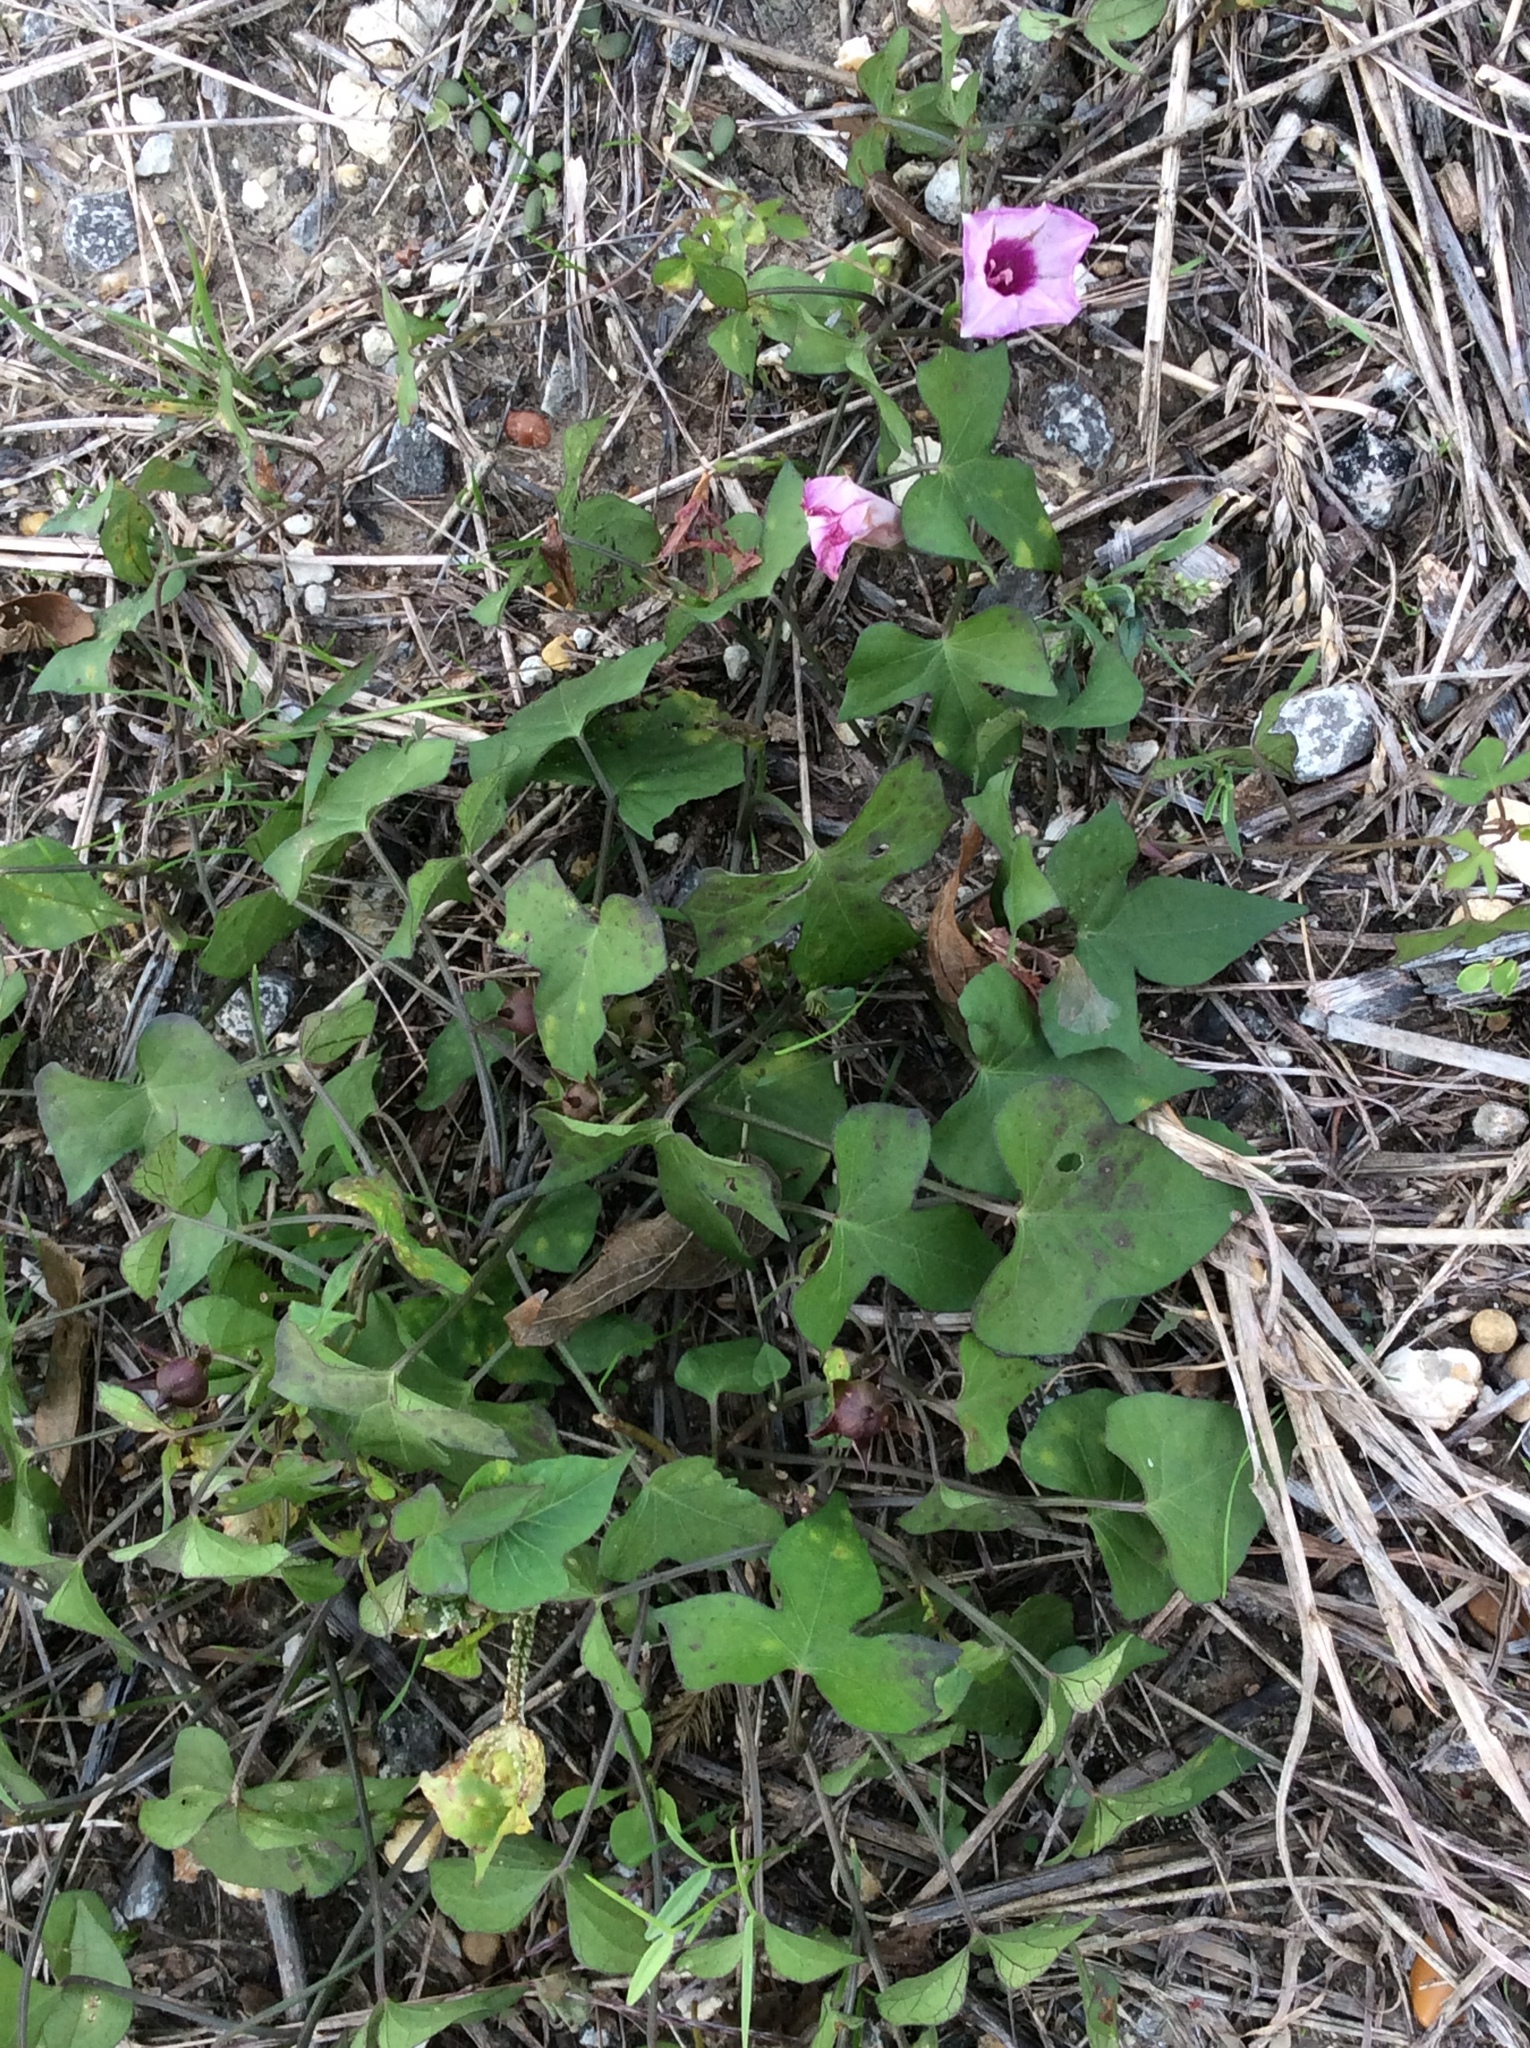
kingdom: Plantae
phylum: Tracheophyta
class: Magnoliopsida
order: Solanales
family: Convolvulaceae
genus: Ipomoea
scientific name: Ipomoea cordatotriloba
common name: Cotton morning glory
